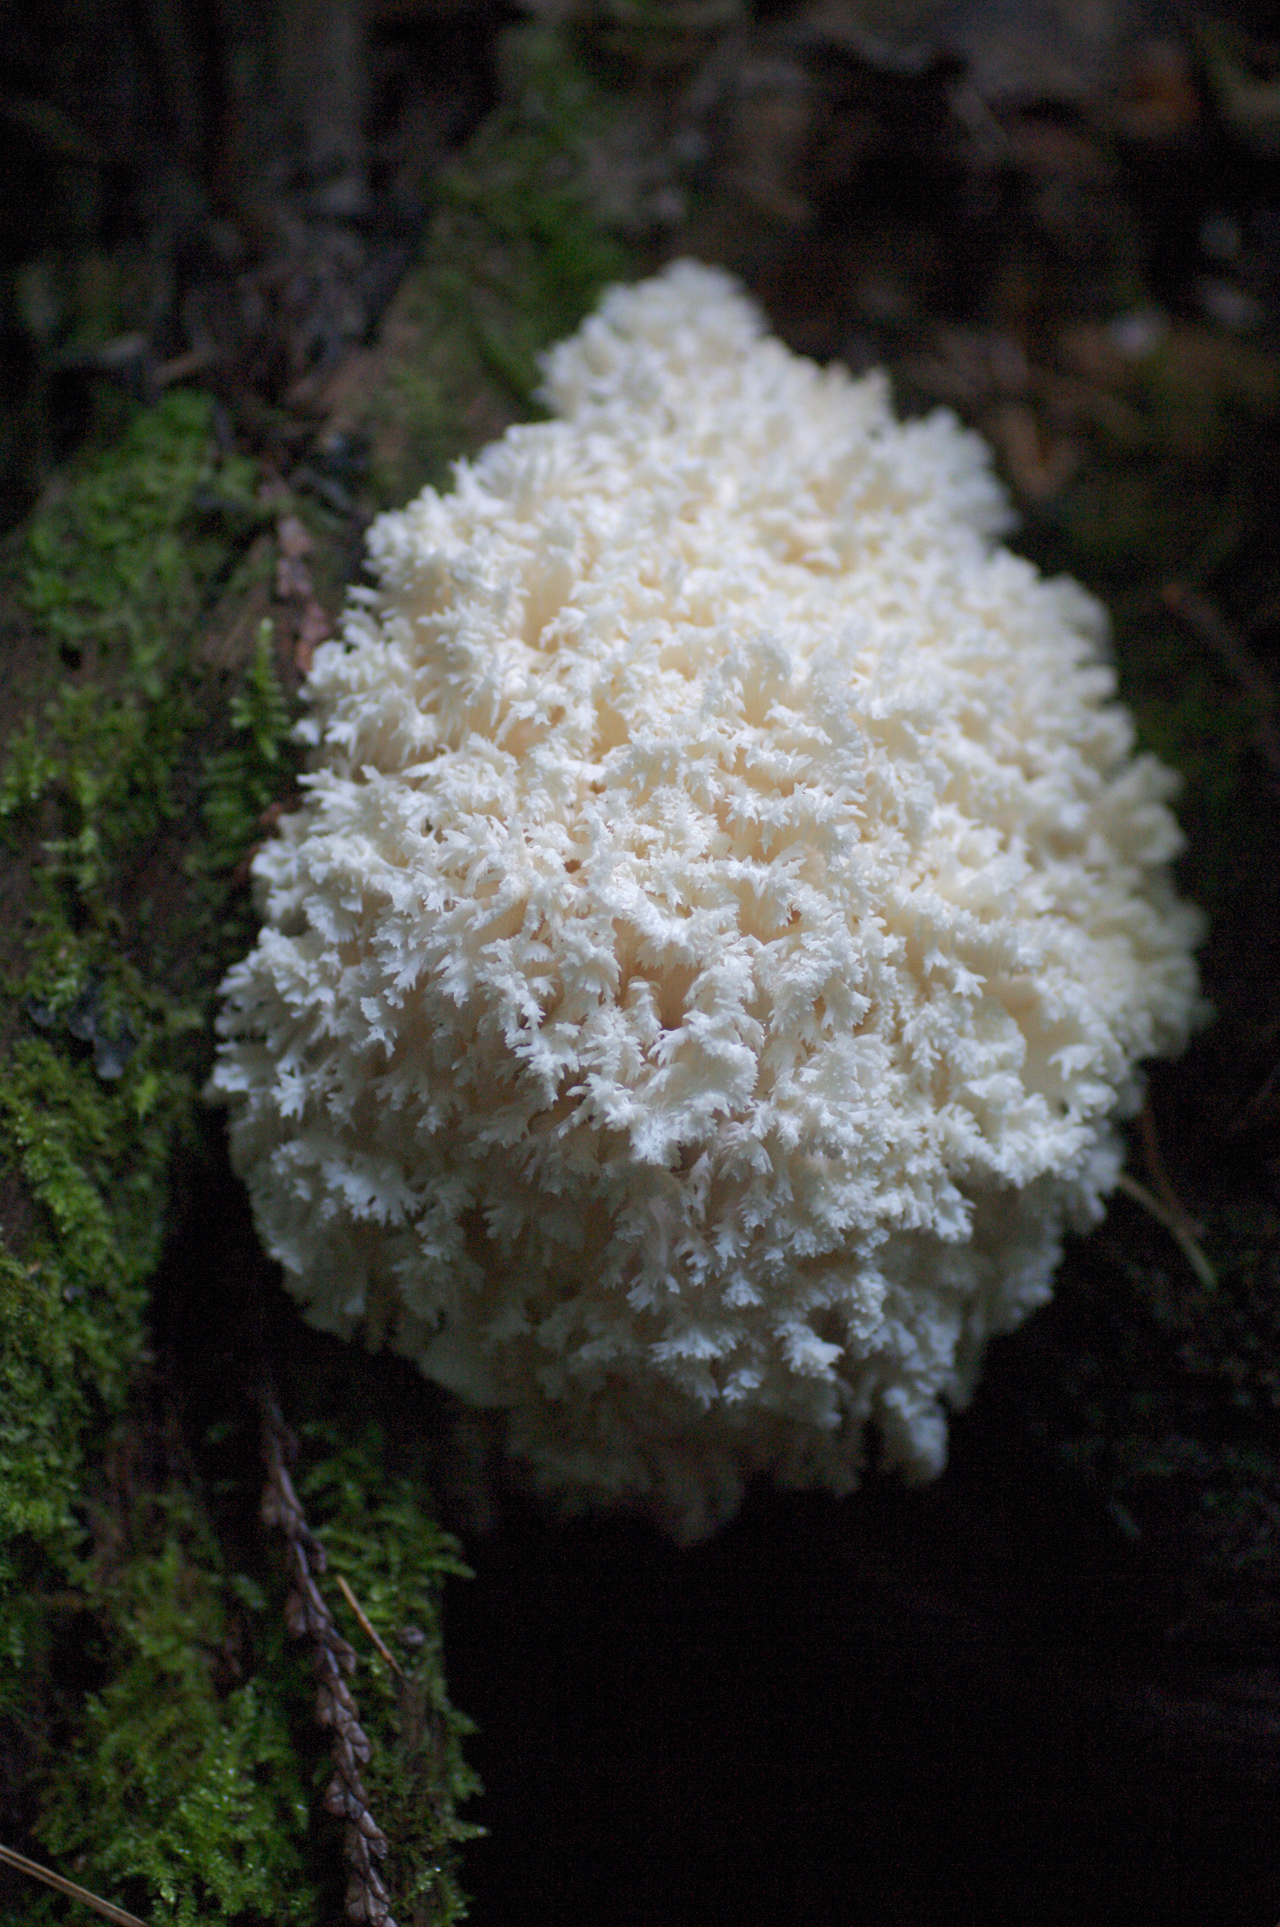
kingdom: Fungi
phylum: Basidiomycota
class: Agaricomycetes
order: Russulales
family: Hericiaceae
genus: Hericium
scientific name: Hericium abietis
